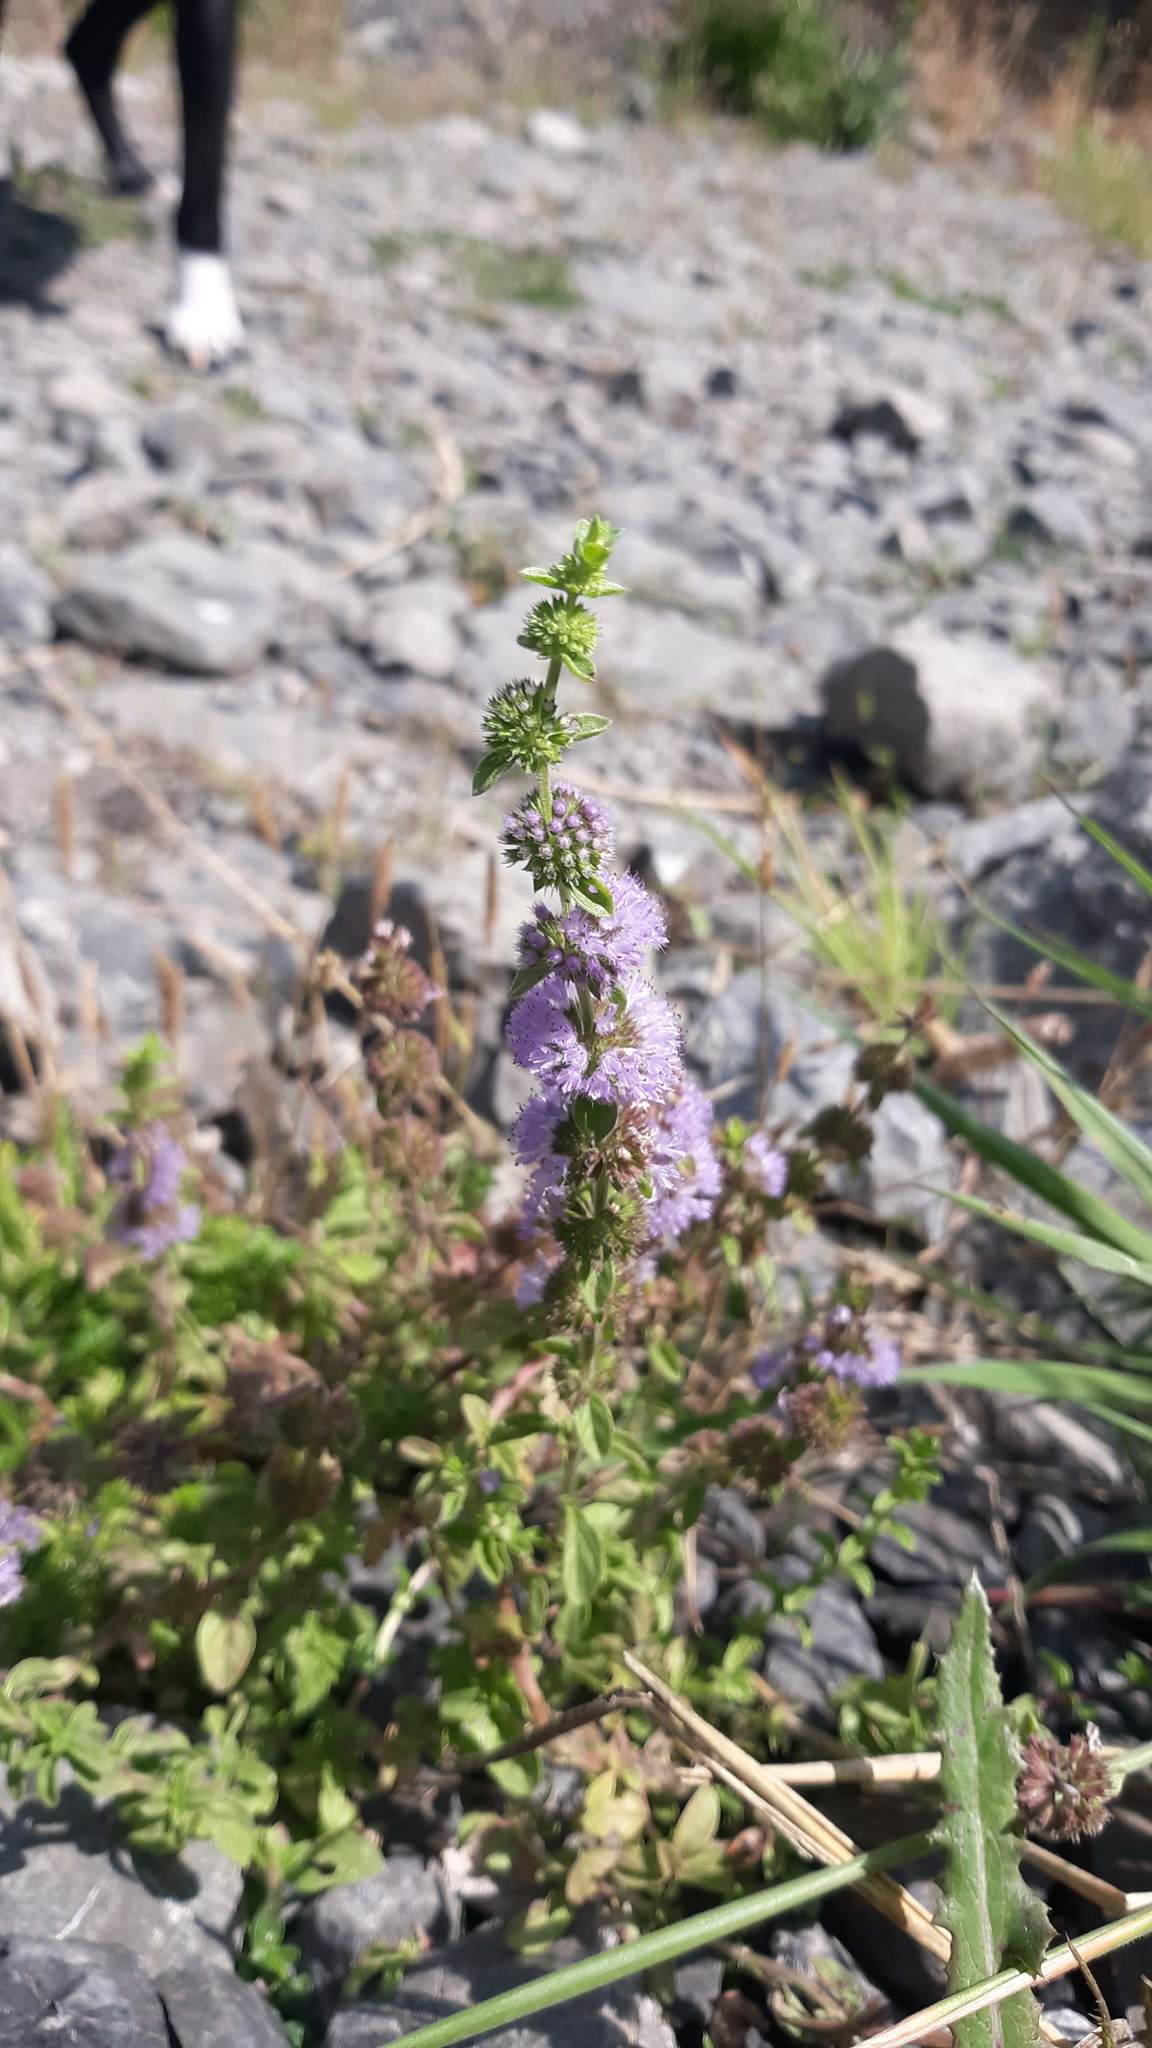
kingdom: Plantae
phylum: Tracheophyta
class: Magnoliopsida
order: Lamiales
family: Lamiaceae
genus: Mentha
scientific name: Mentha pulegium
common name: Pennyroyal
